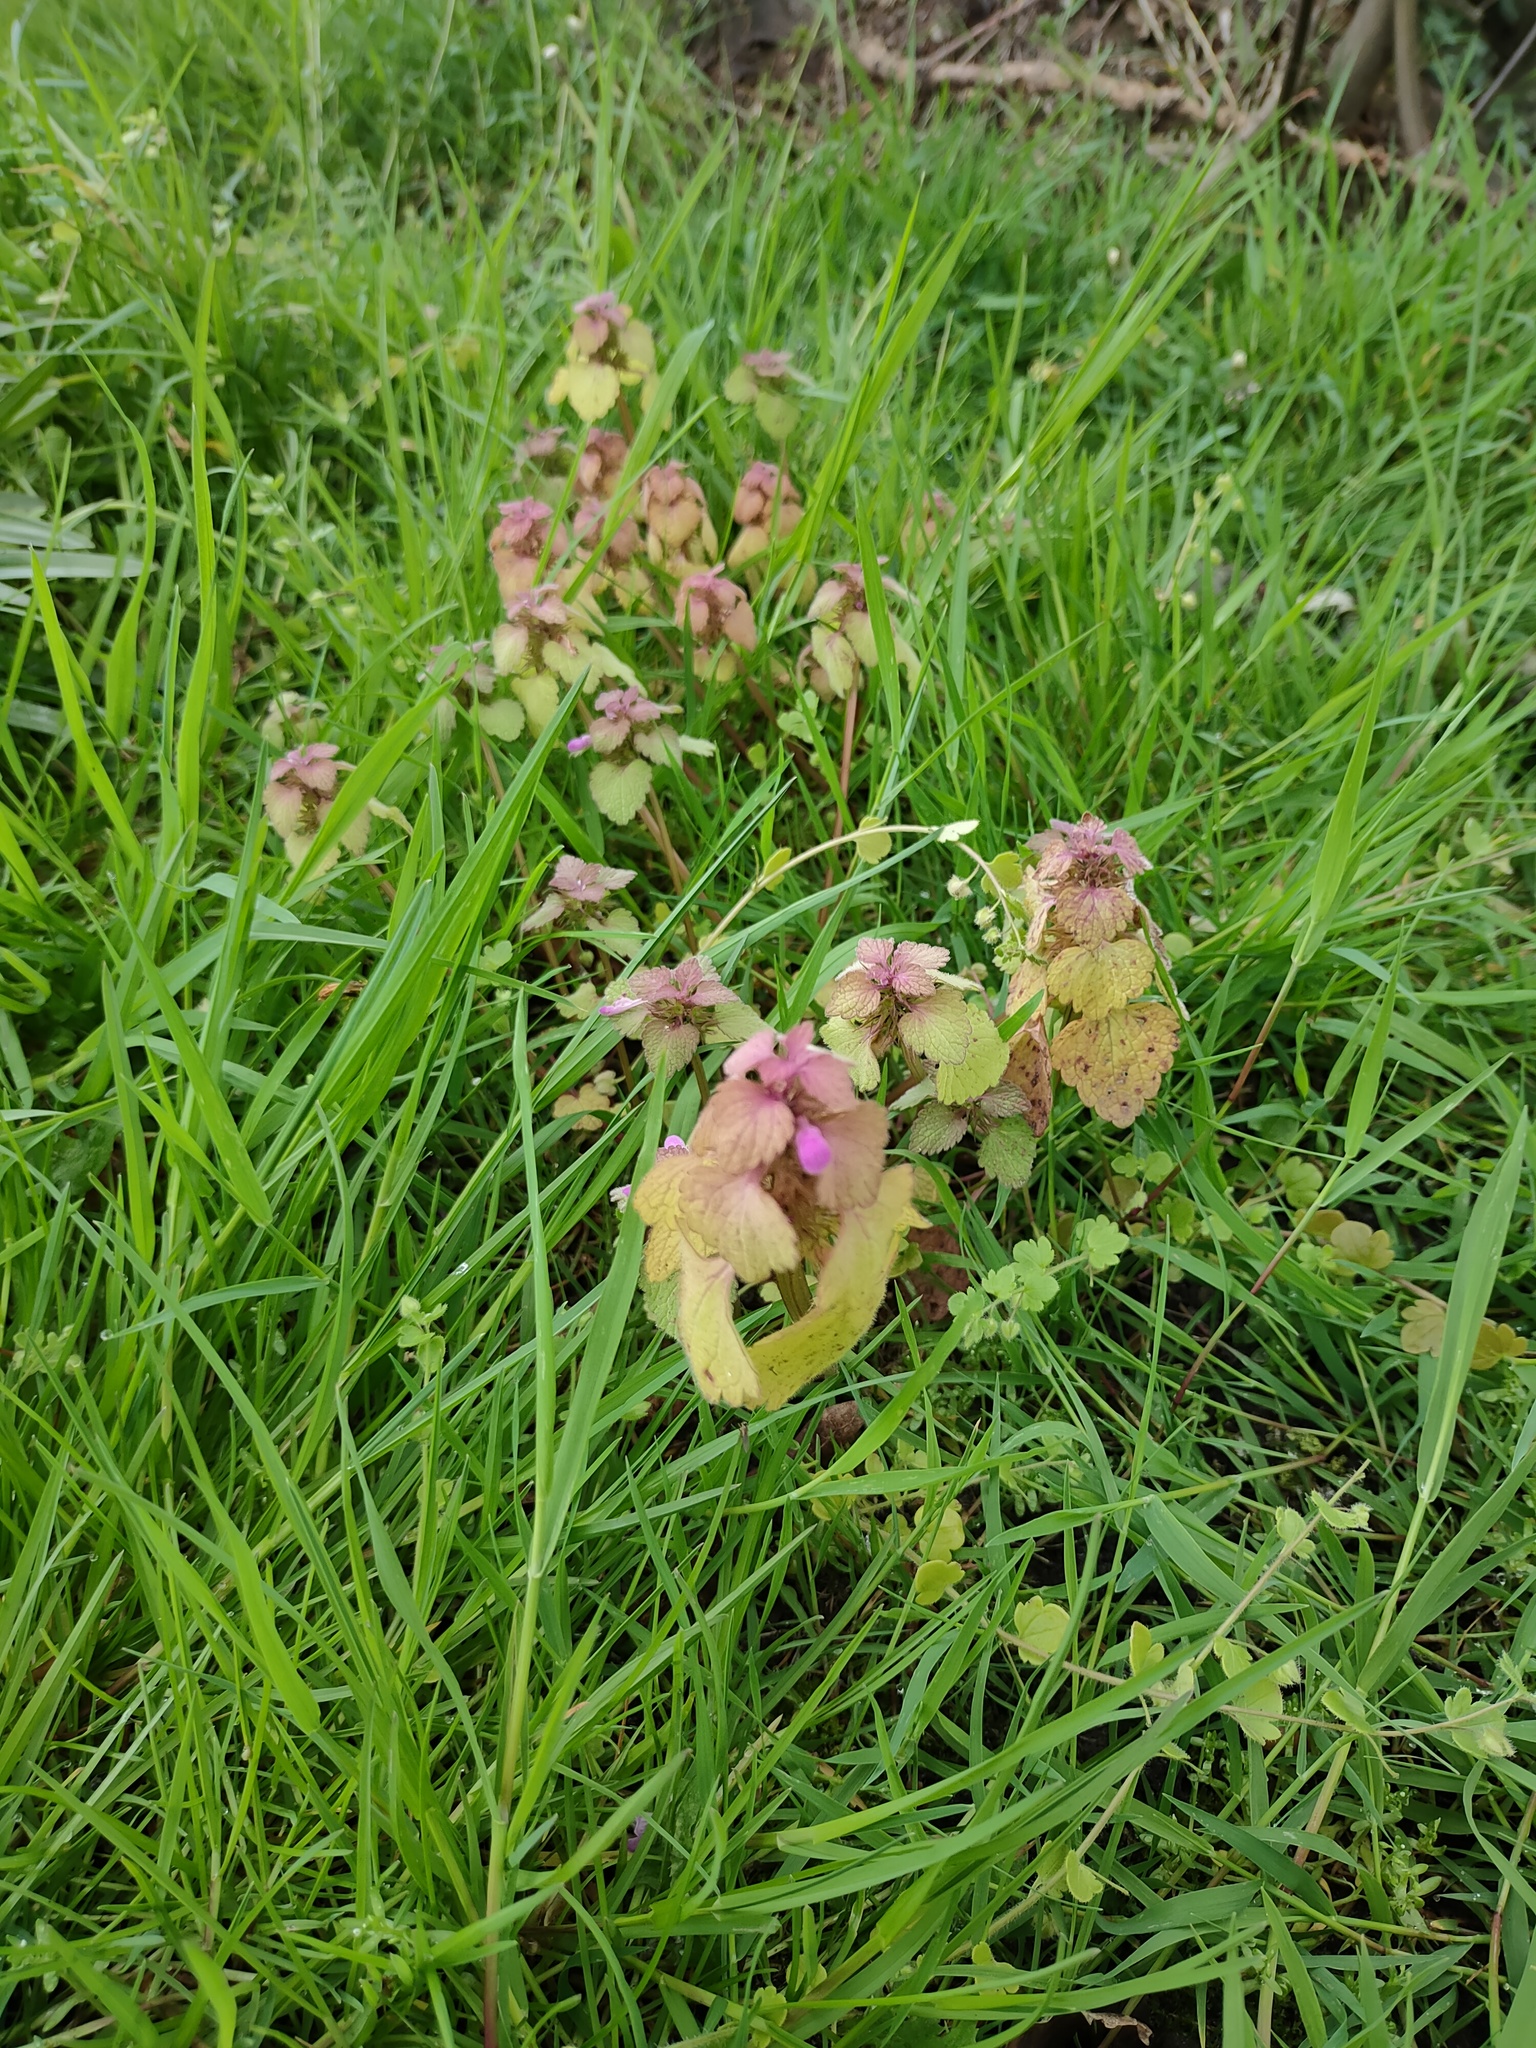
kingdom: Plantae
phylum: Tracheophyta
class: Magnoliopsida
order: Lamiales
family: Lamiaceae
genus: Lamium
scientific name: Lamium purpureum
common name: Red dead-nettle
